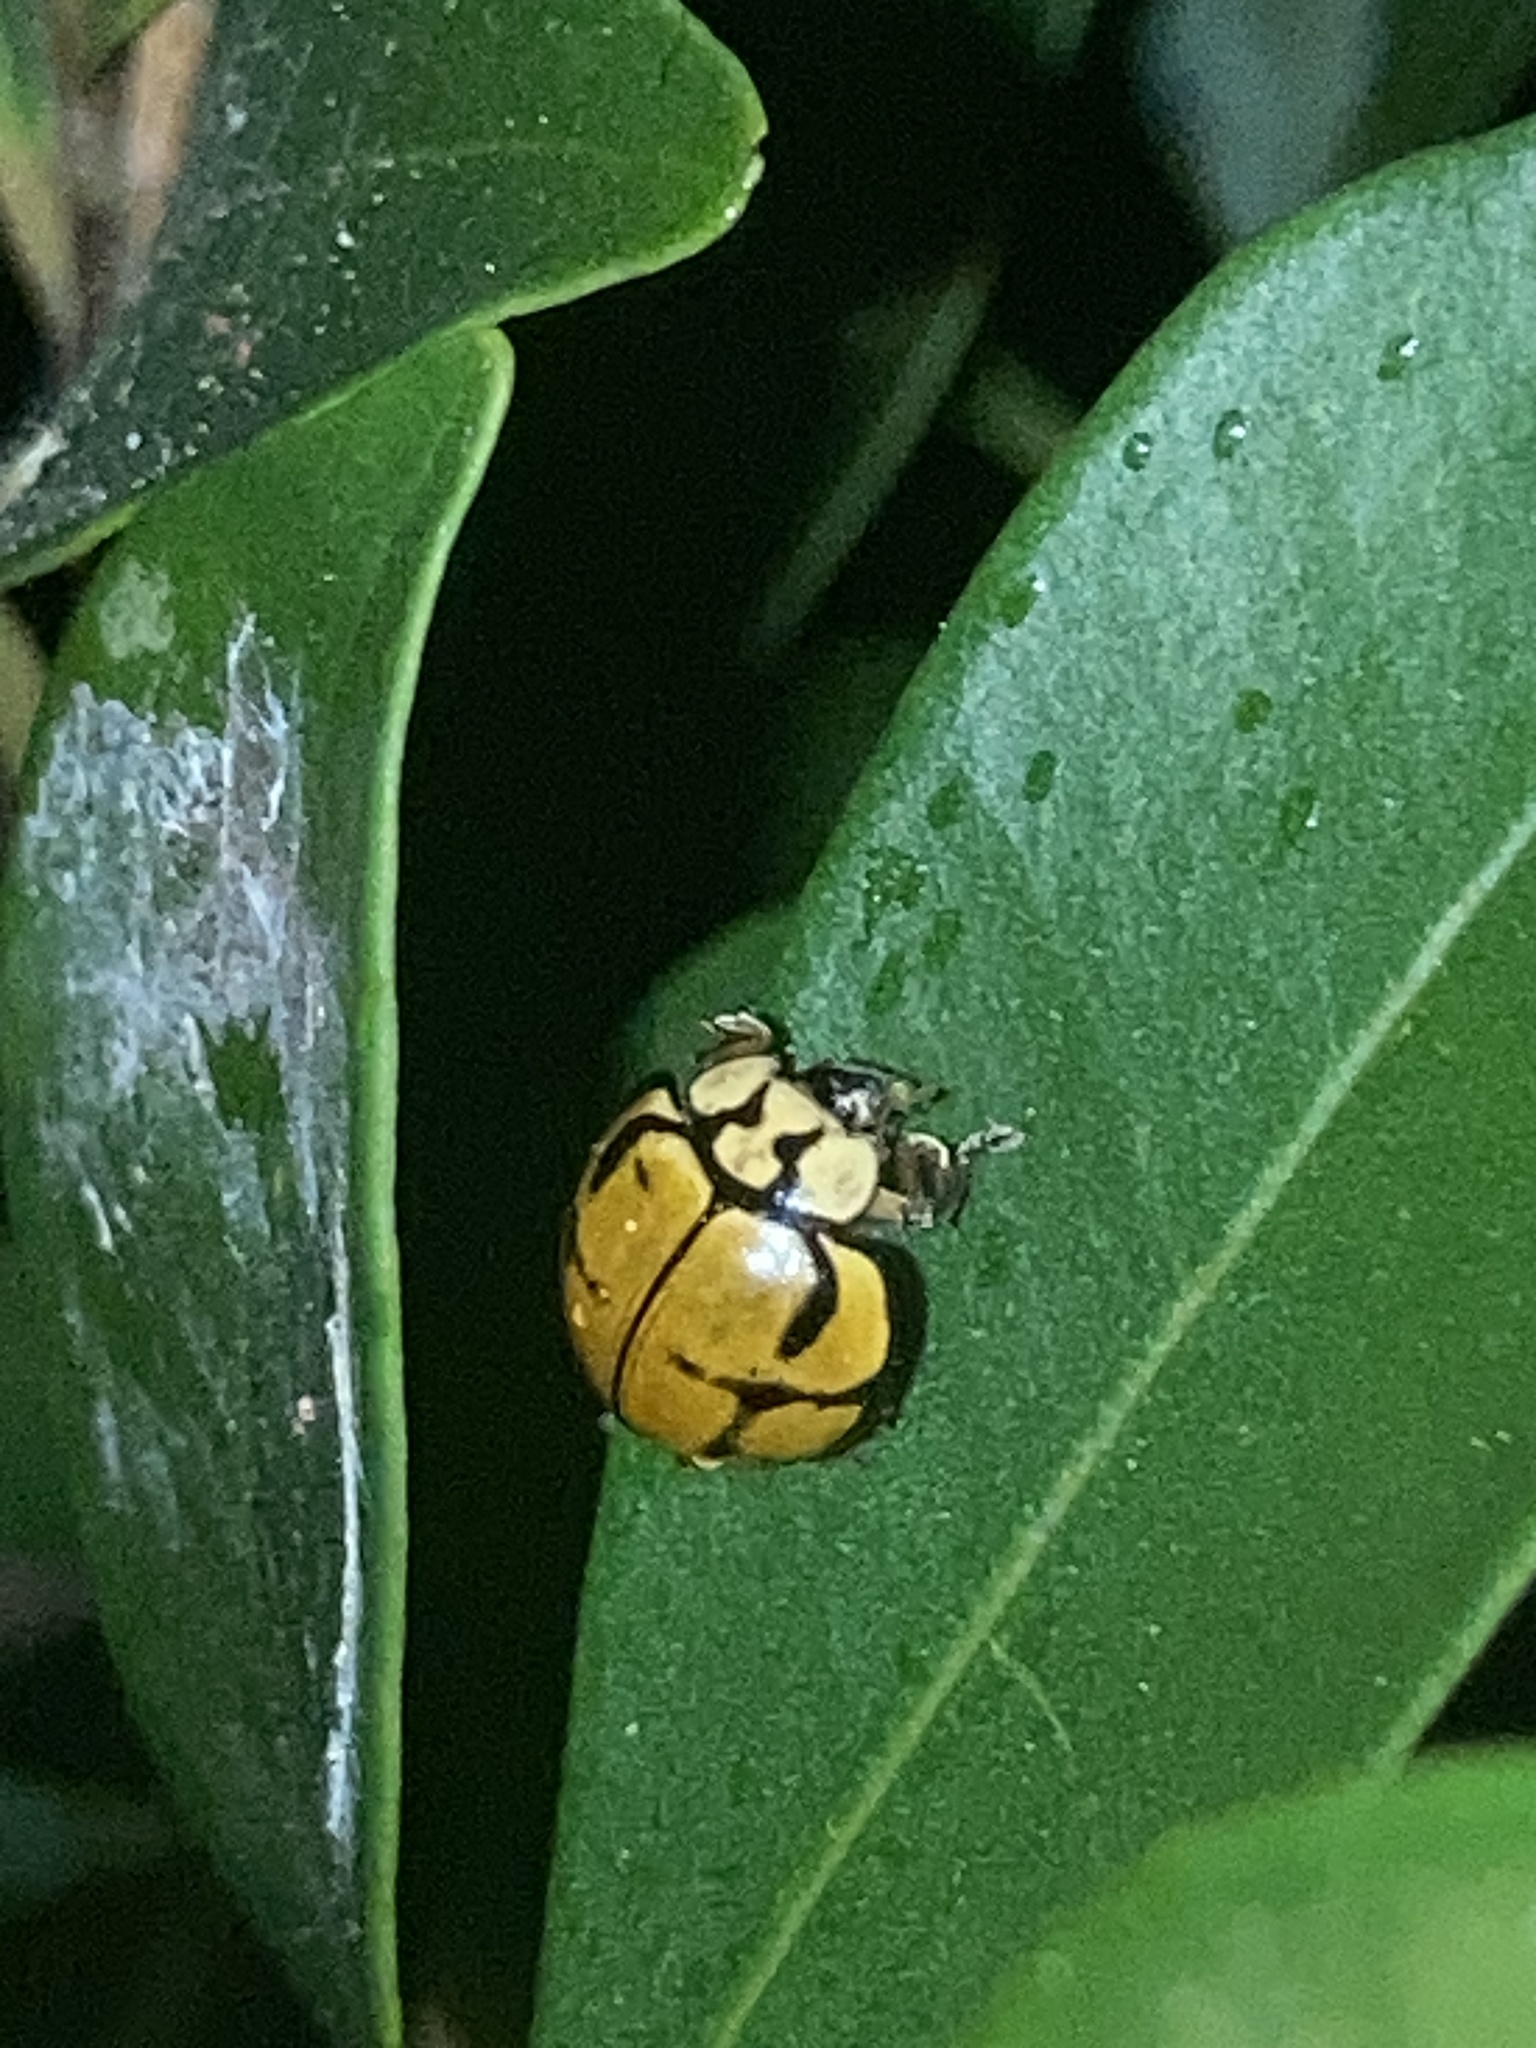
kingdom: Animalia
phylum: Arthropoda
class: Insecta
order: Coleoptera
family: Coccinellidae
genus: Harmonia
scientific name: Harmonia
